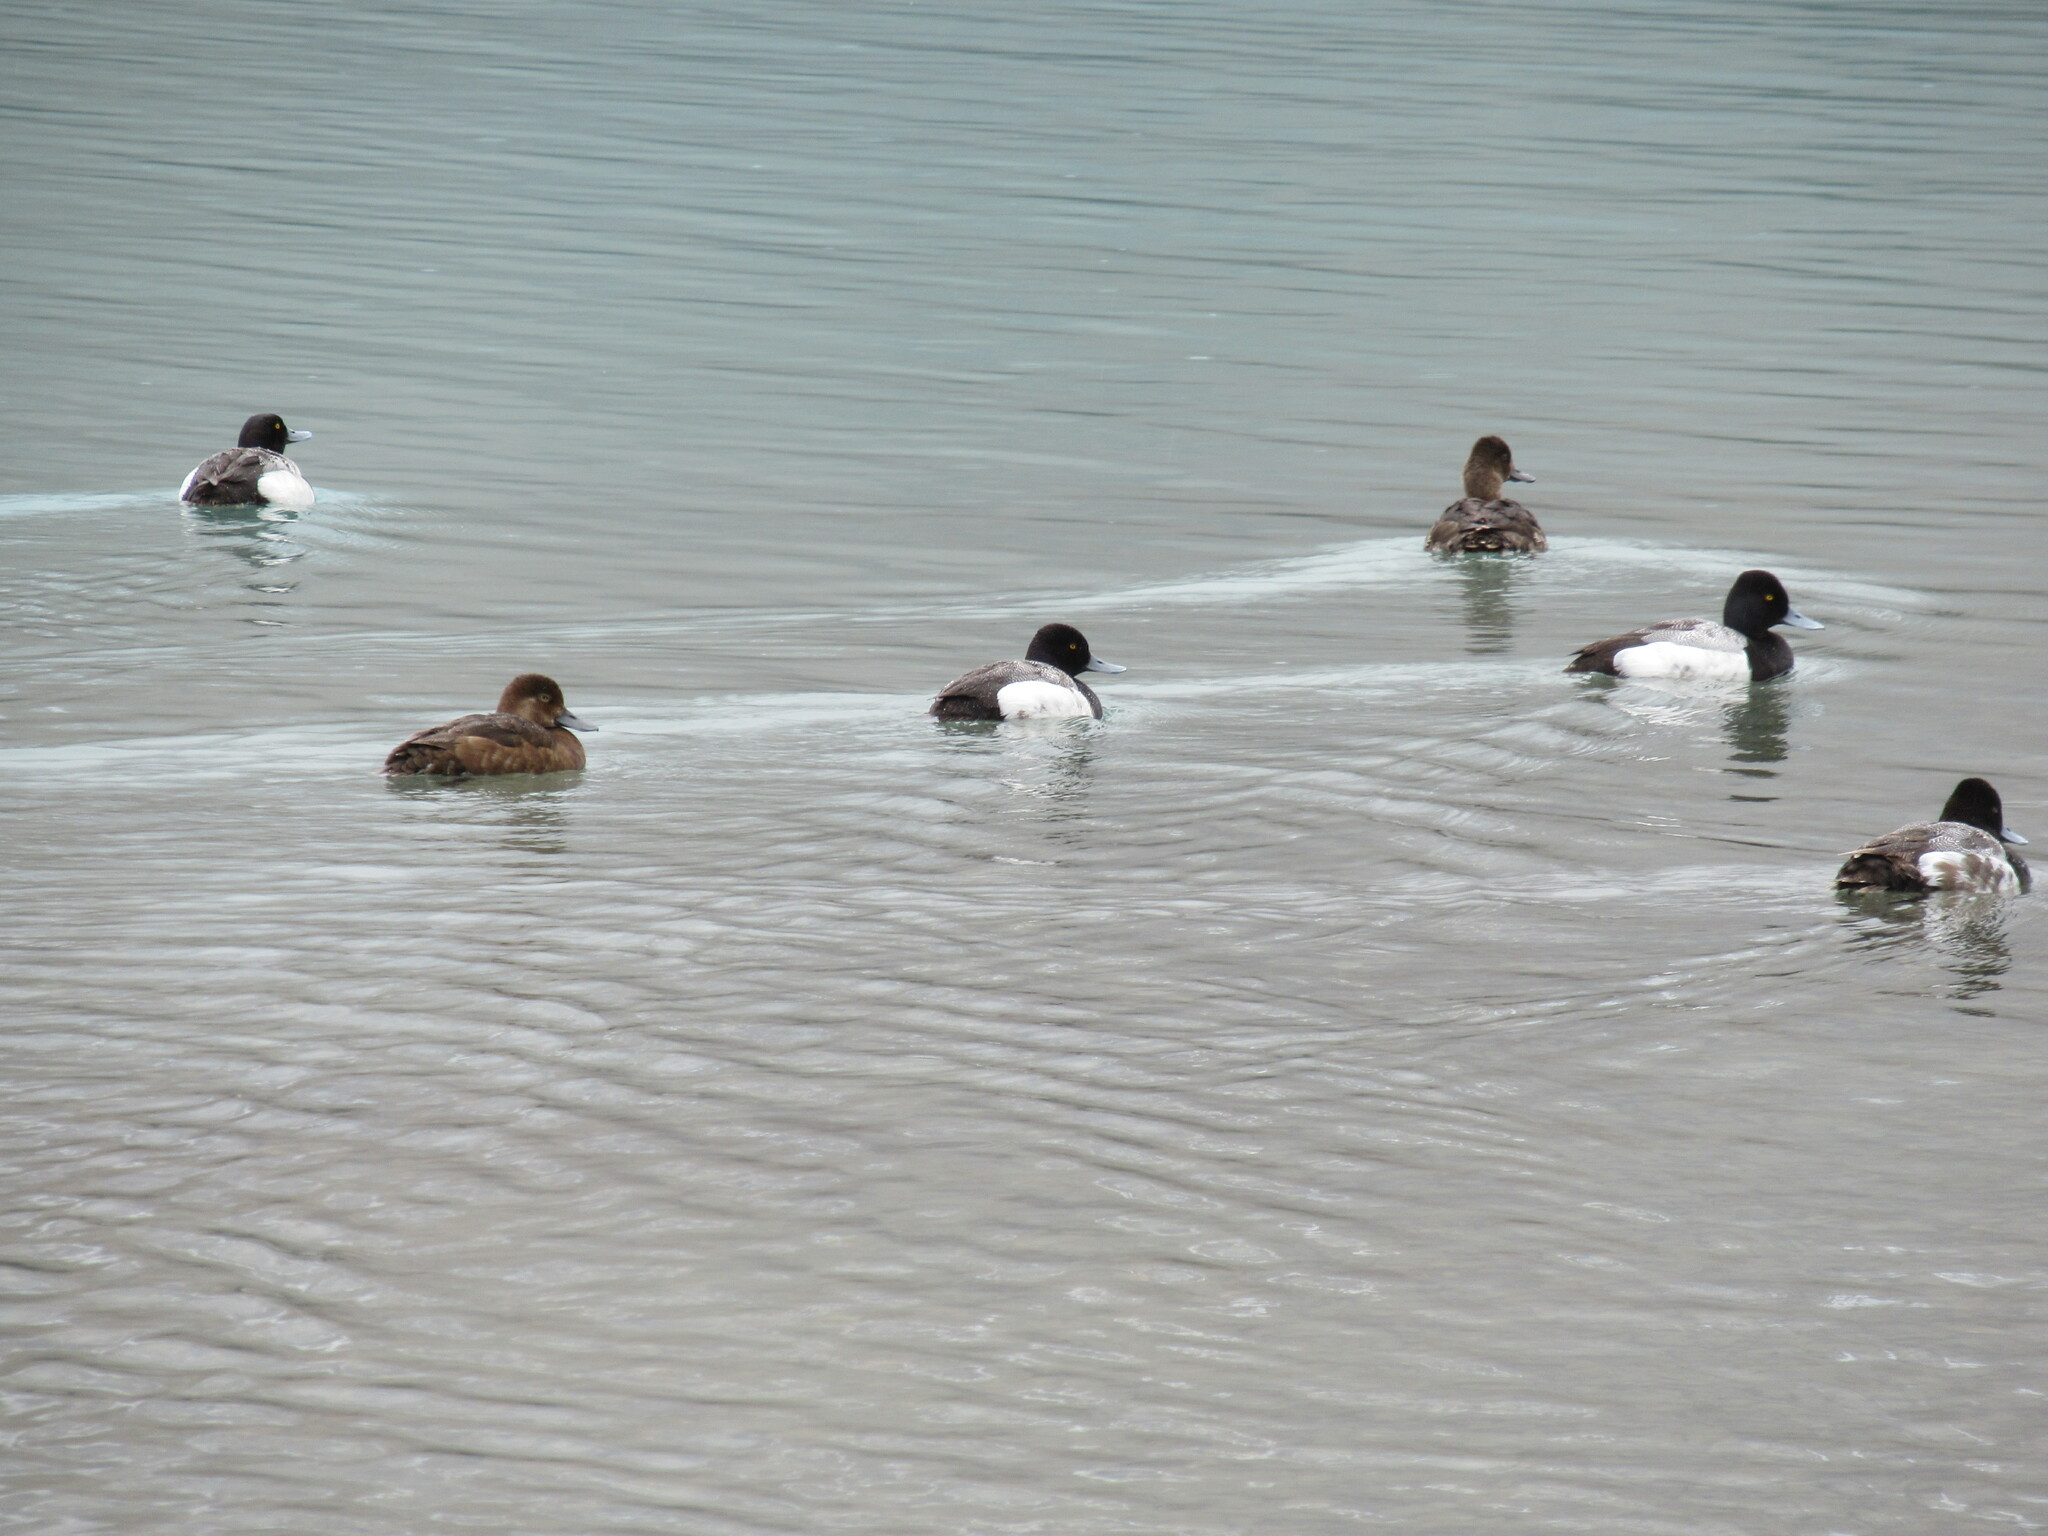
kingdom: Animalia
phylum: Chordata
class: Aves
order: Anseriformes
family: Anatidae
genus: Aythya
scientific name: Aythya affinis
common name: Lesser scaup
